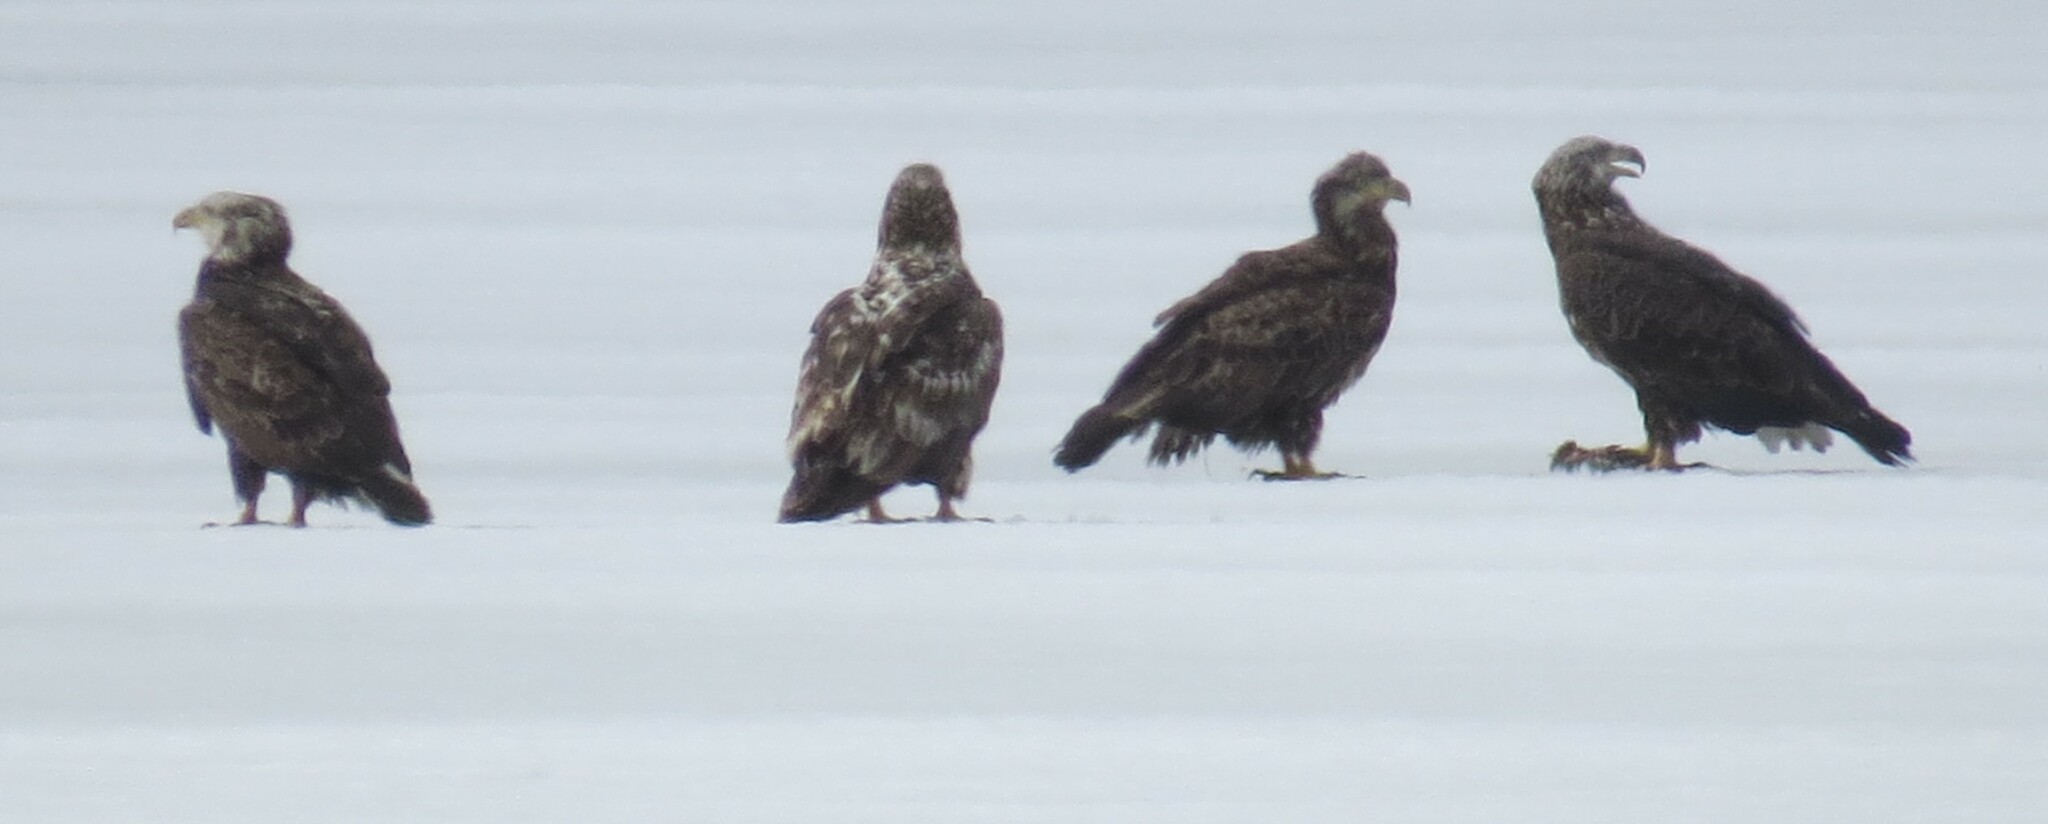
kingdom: Animalia
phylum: Chordata
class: Aves
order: Accipitriformes
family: Accipitridae
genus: Haliaeetus
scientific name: Haliaeetus leucocephalus
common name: Bald eagle
